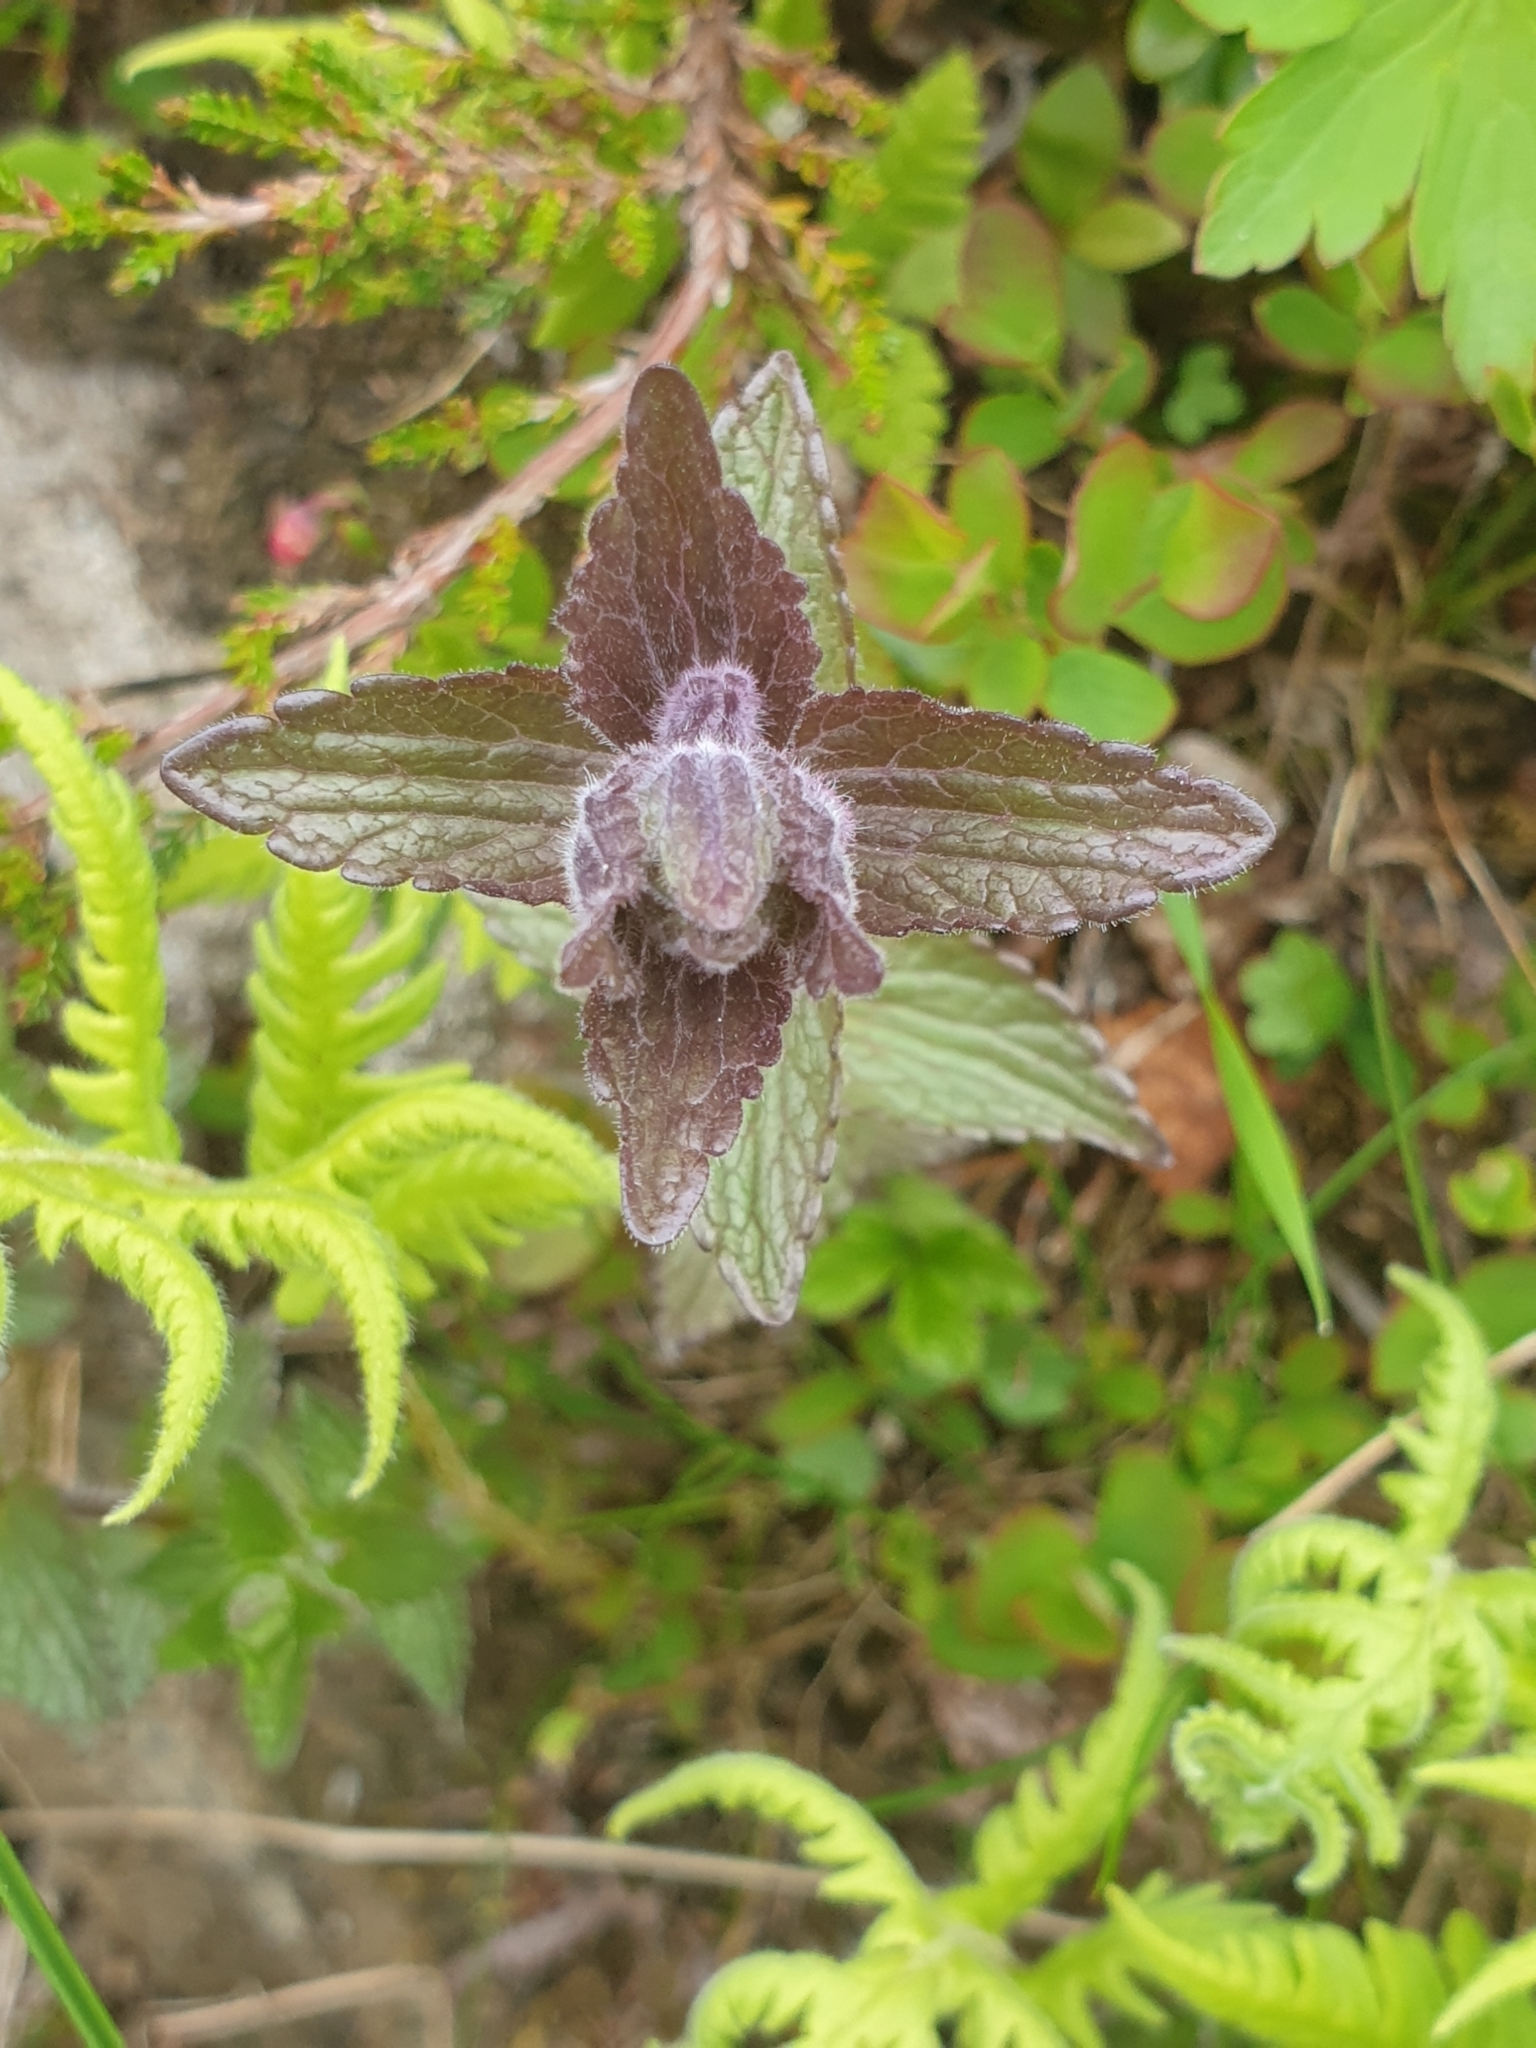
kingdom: Plantae
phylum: Tracheophyta
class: Magnoliopsida
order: Lamiales
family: Orobanchaceae
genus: Bartsia
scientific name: Bartsia alpina
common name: Alpine bartsia
